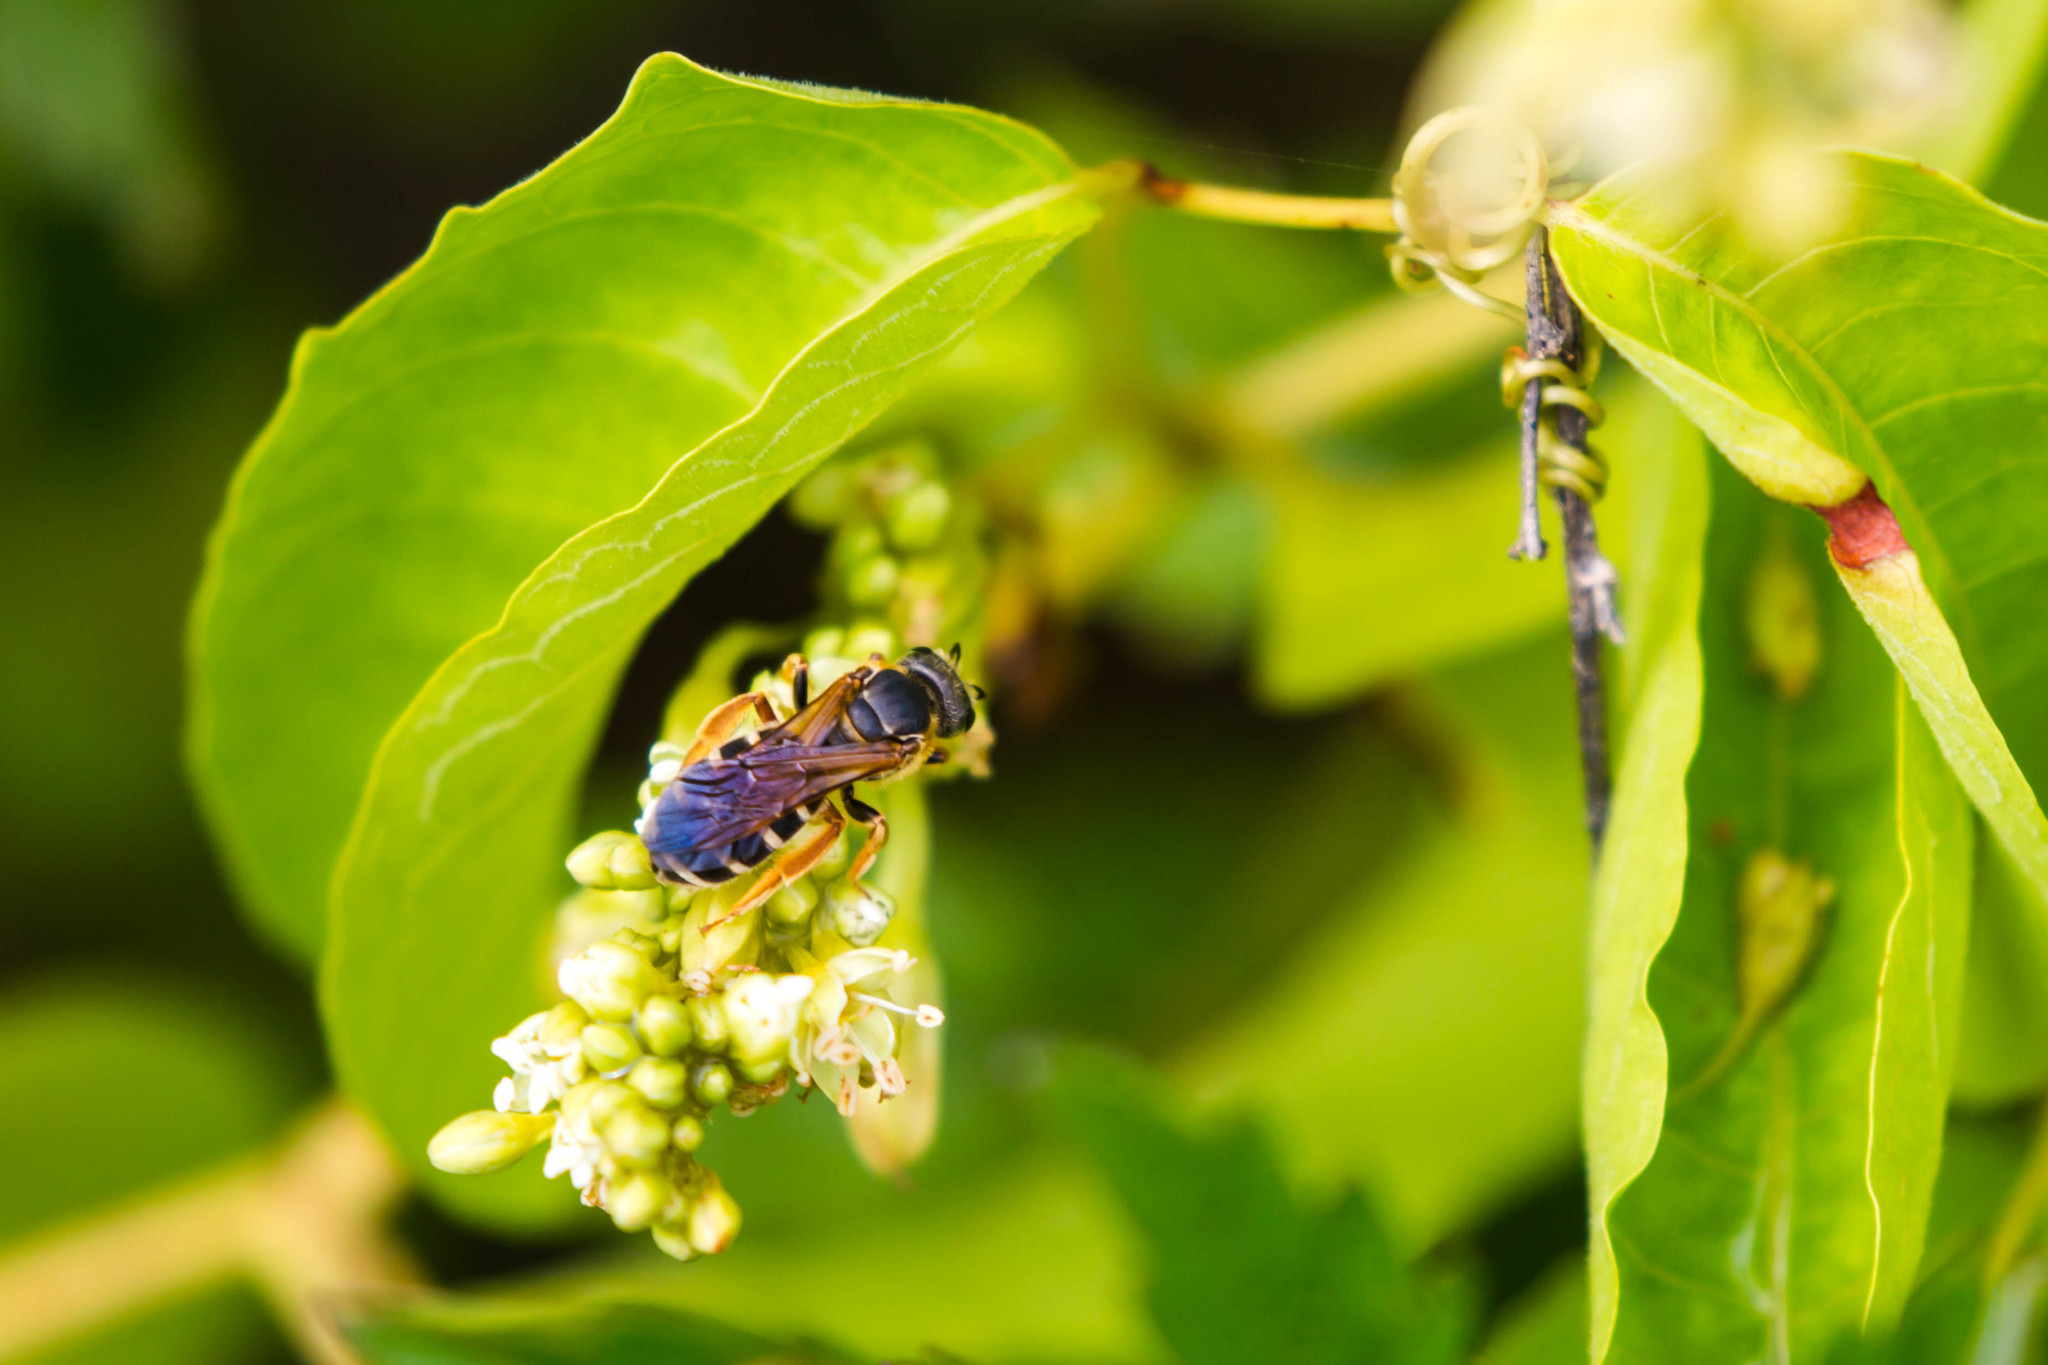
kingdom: Animalia
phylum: Arthropoda
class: Insecta
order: Hymenoptera
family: Halictidae
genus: Halictus
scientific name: Halictus parallelus
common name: Parallel-striped sweat bee
